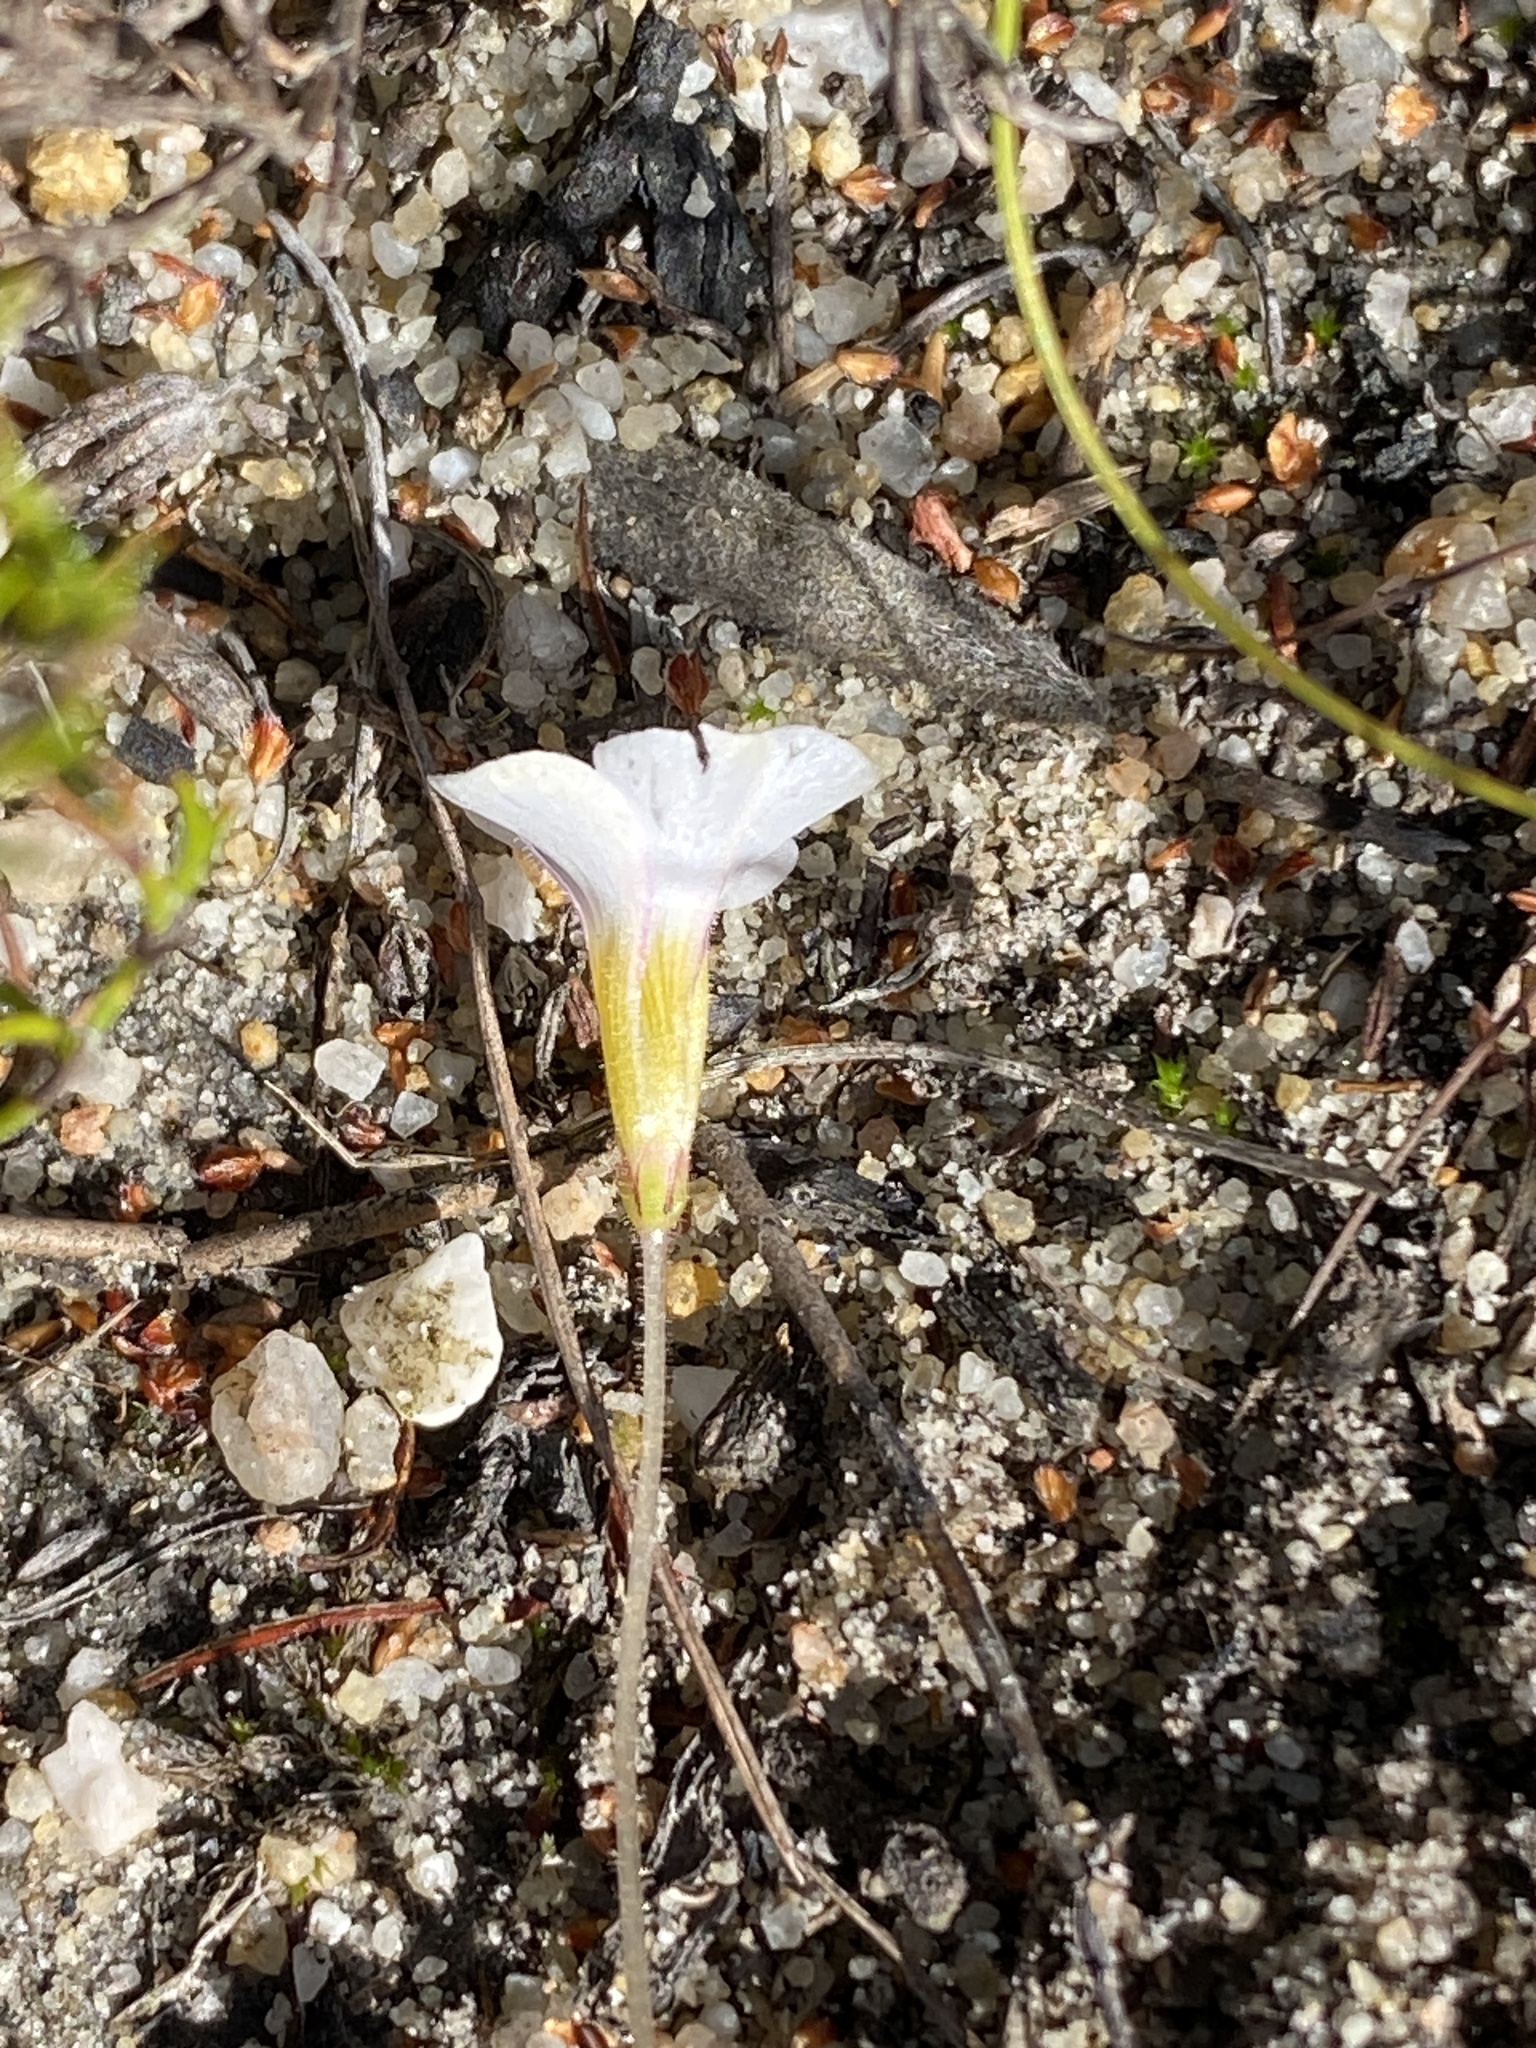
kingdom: Plantae
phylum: Tracheophyta
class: Magnoliopsida
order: Oxalidales
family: Oxalidaceae
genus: Oxalis
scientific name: Oxalis punctata
